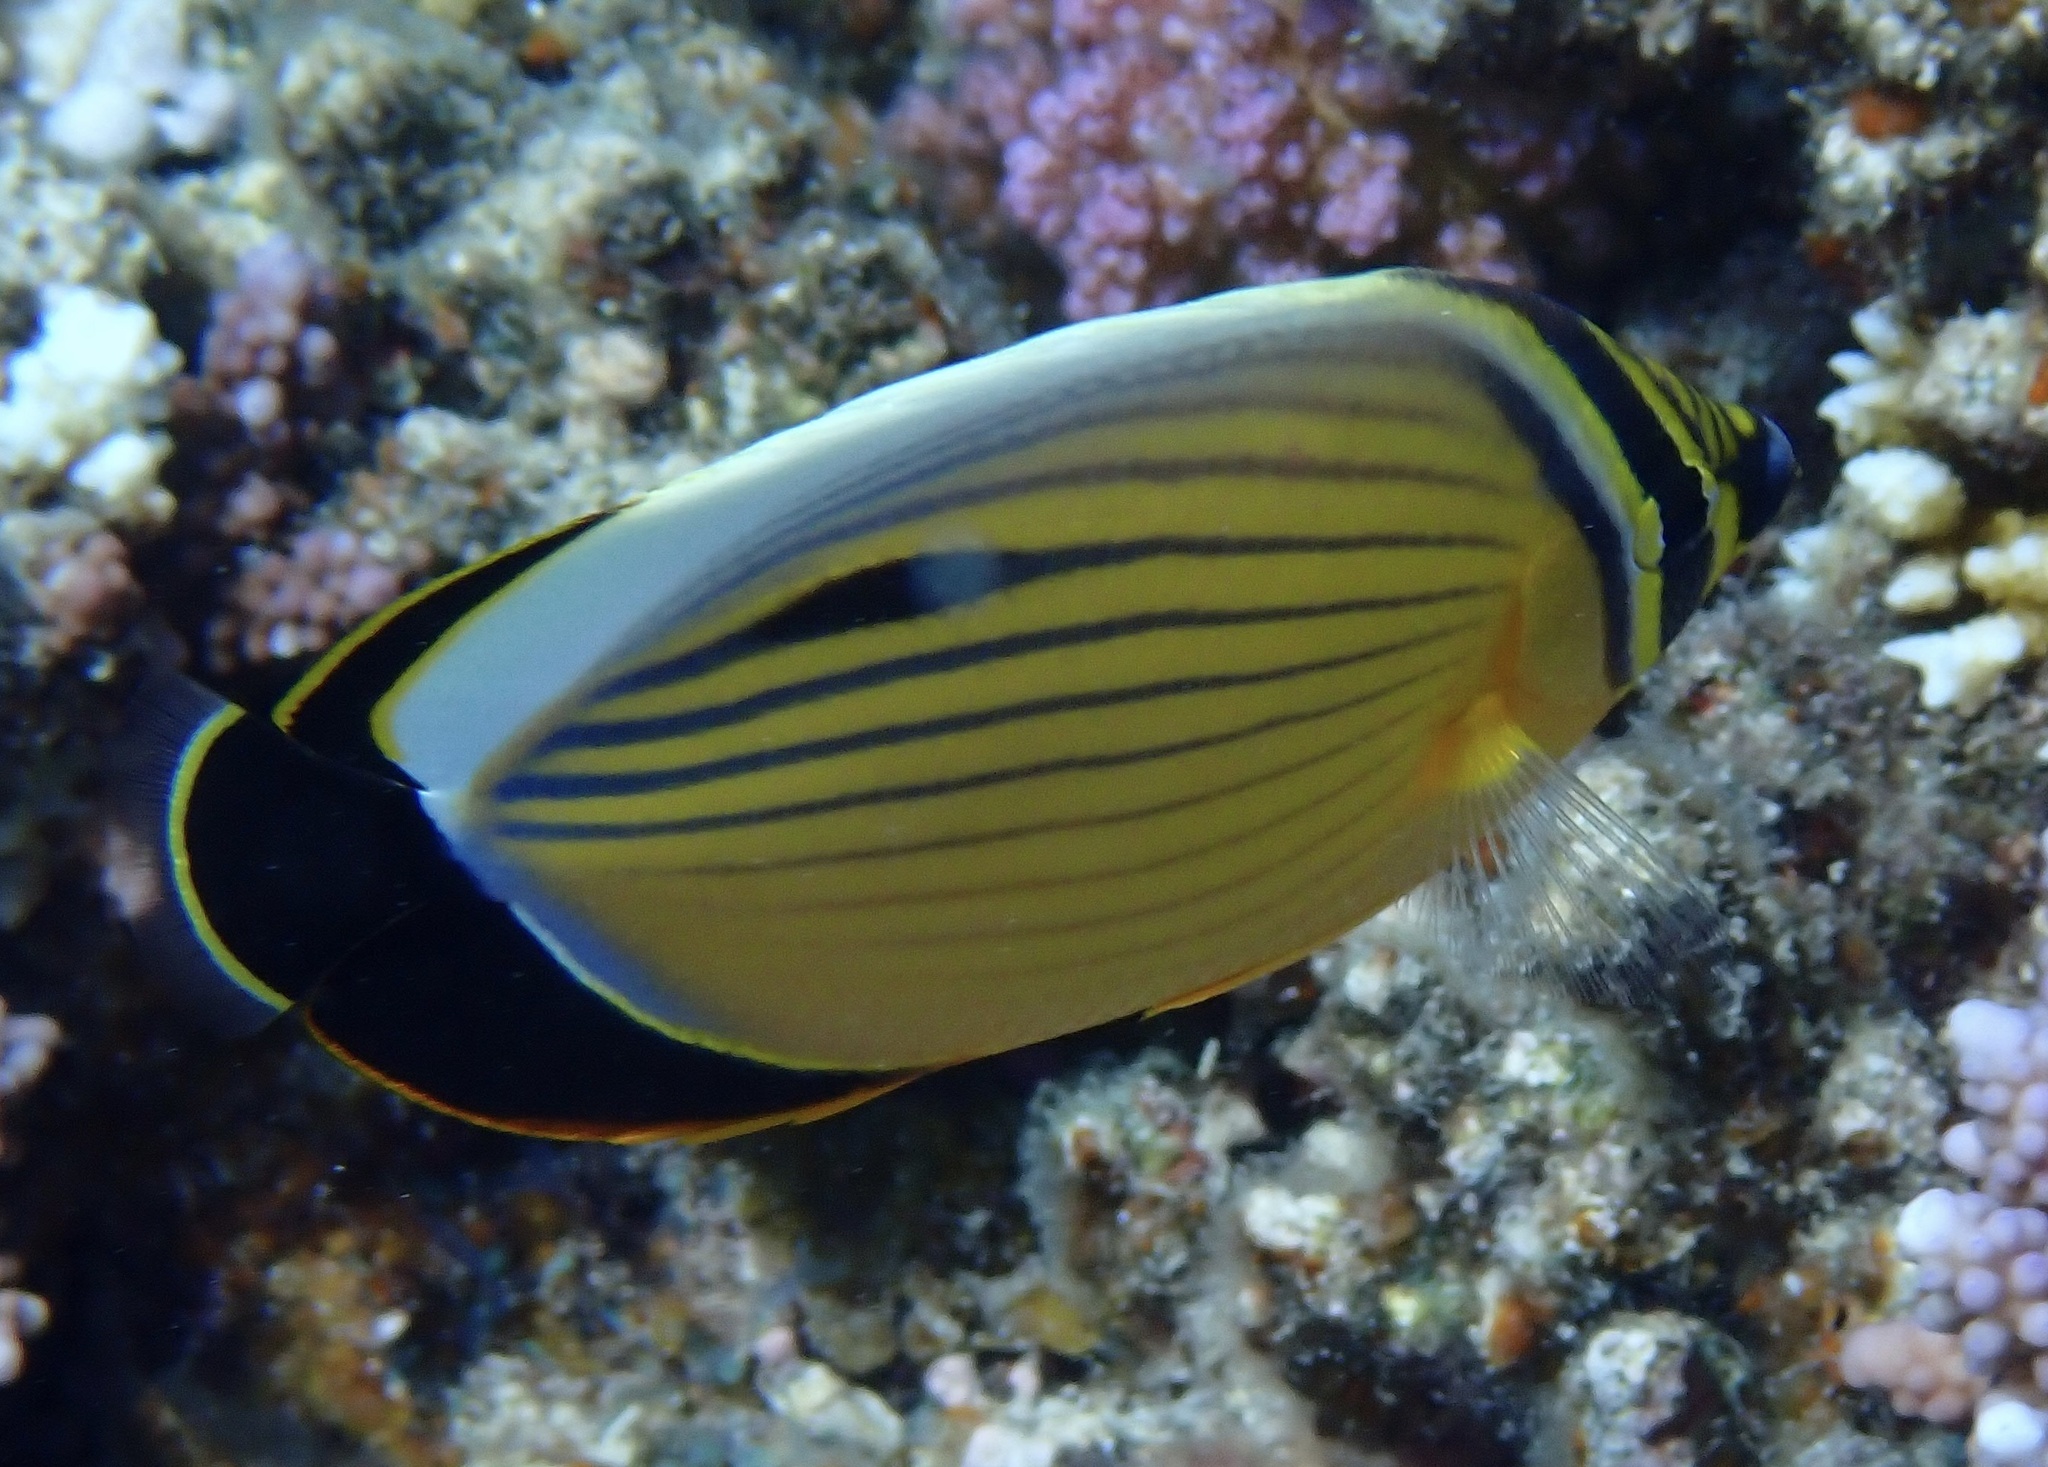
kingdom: Animalia
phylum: Chordata
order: Perciformes
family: Chaetodontidae
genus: Chaetodon
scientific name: Chaetodon austriacus
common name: Exquisite butterflyfish
